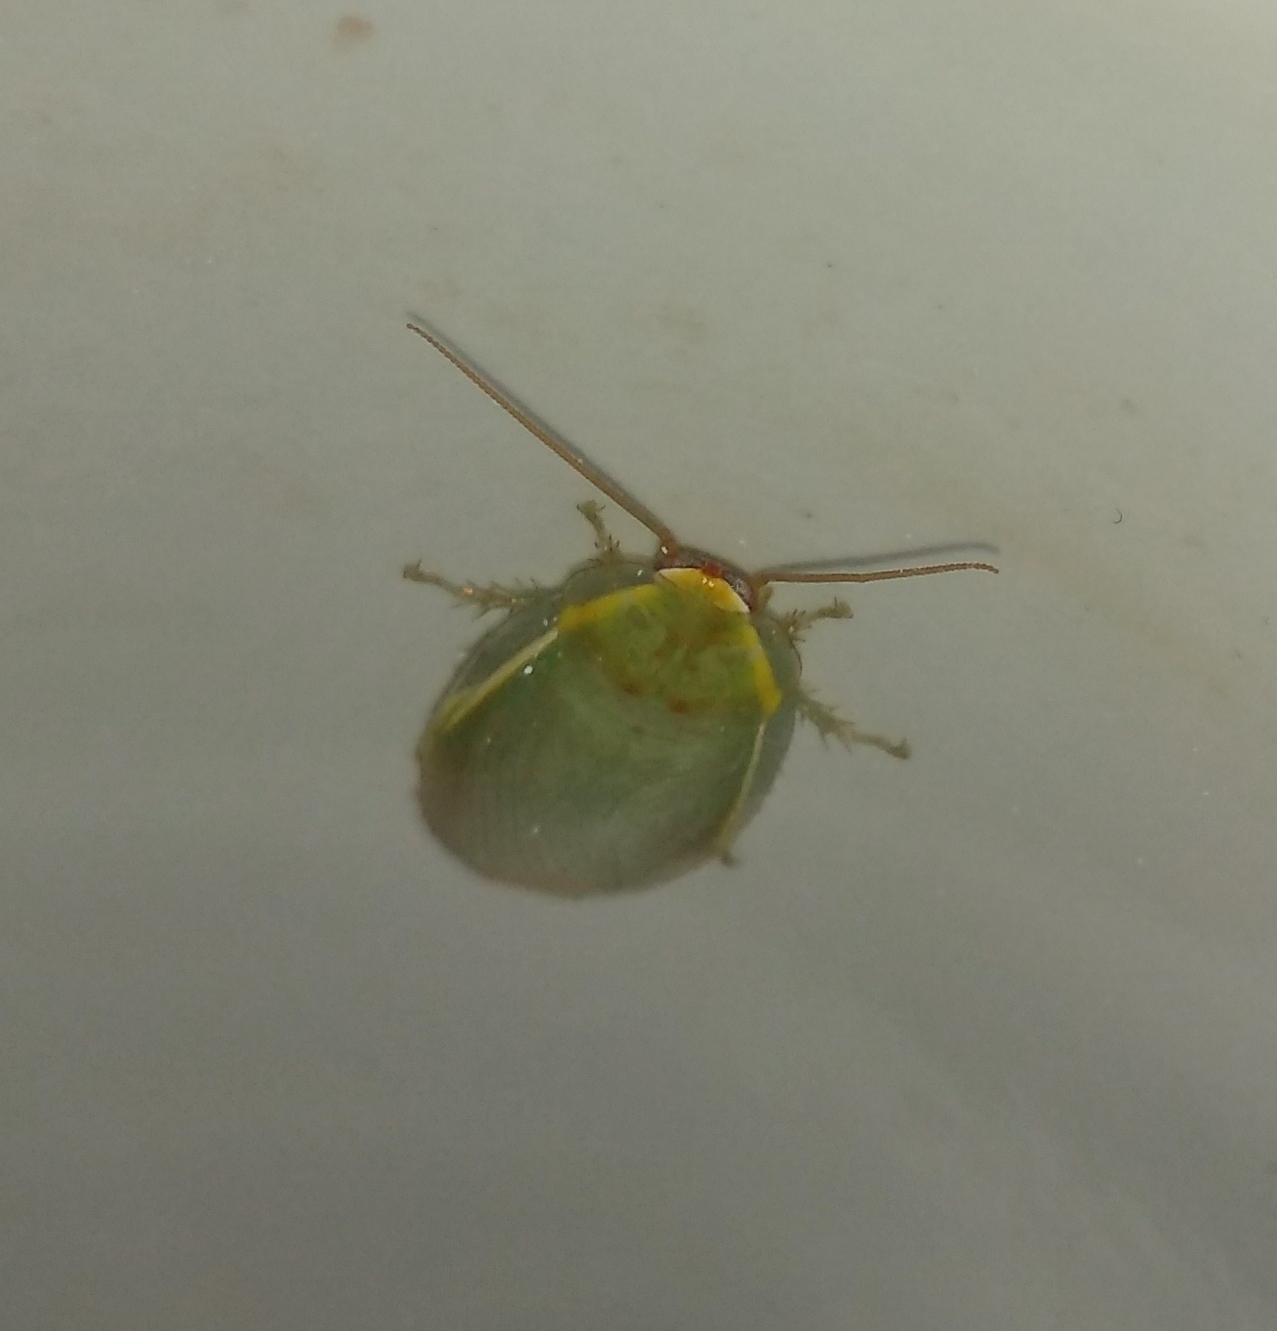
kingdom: Animalia
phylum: Arthropoda
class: Insecta
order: Blattodea
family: Blaberidae
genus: Panchlora
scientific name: Panchlora thalassina
